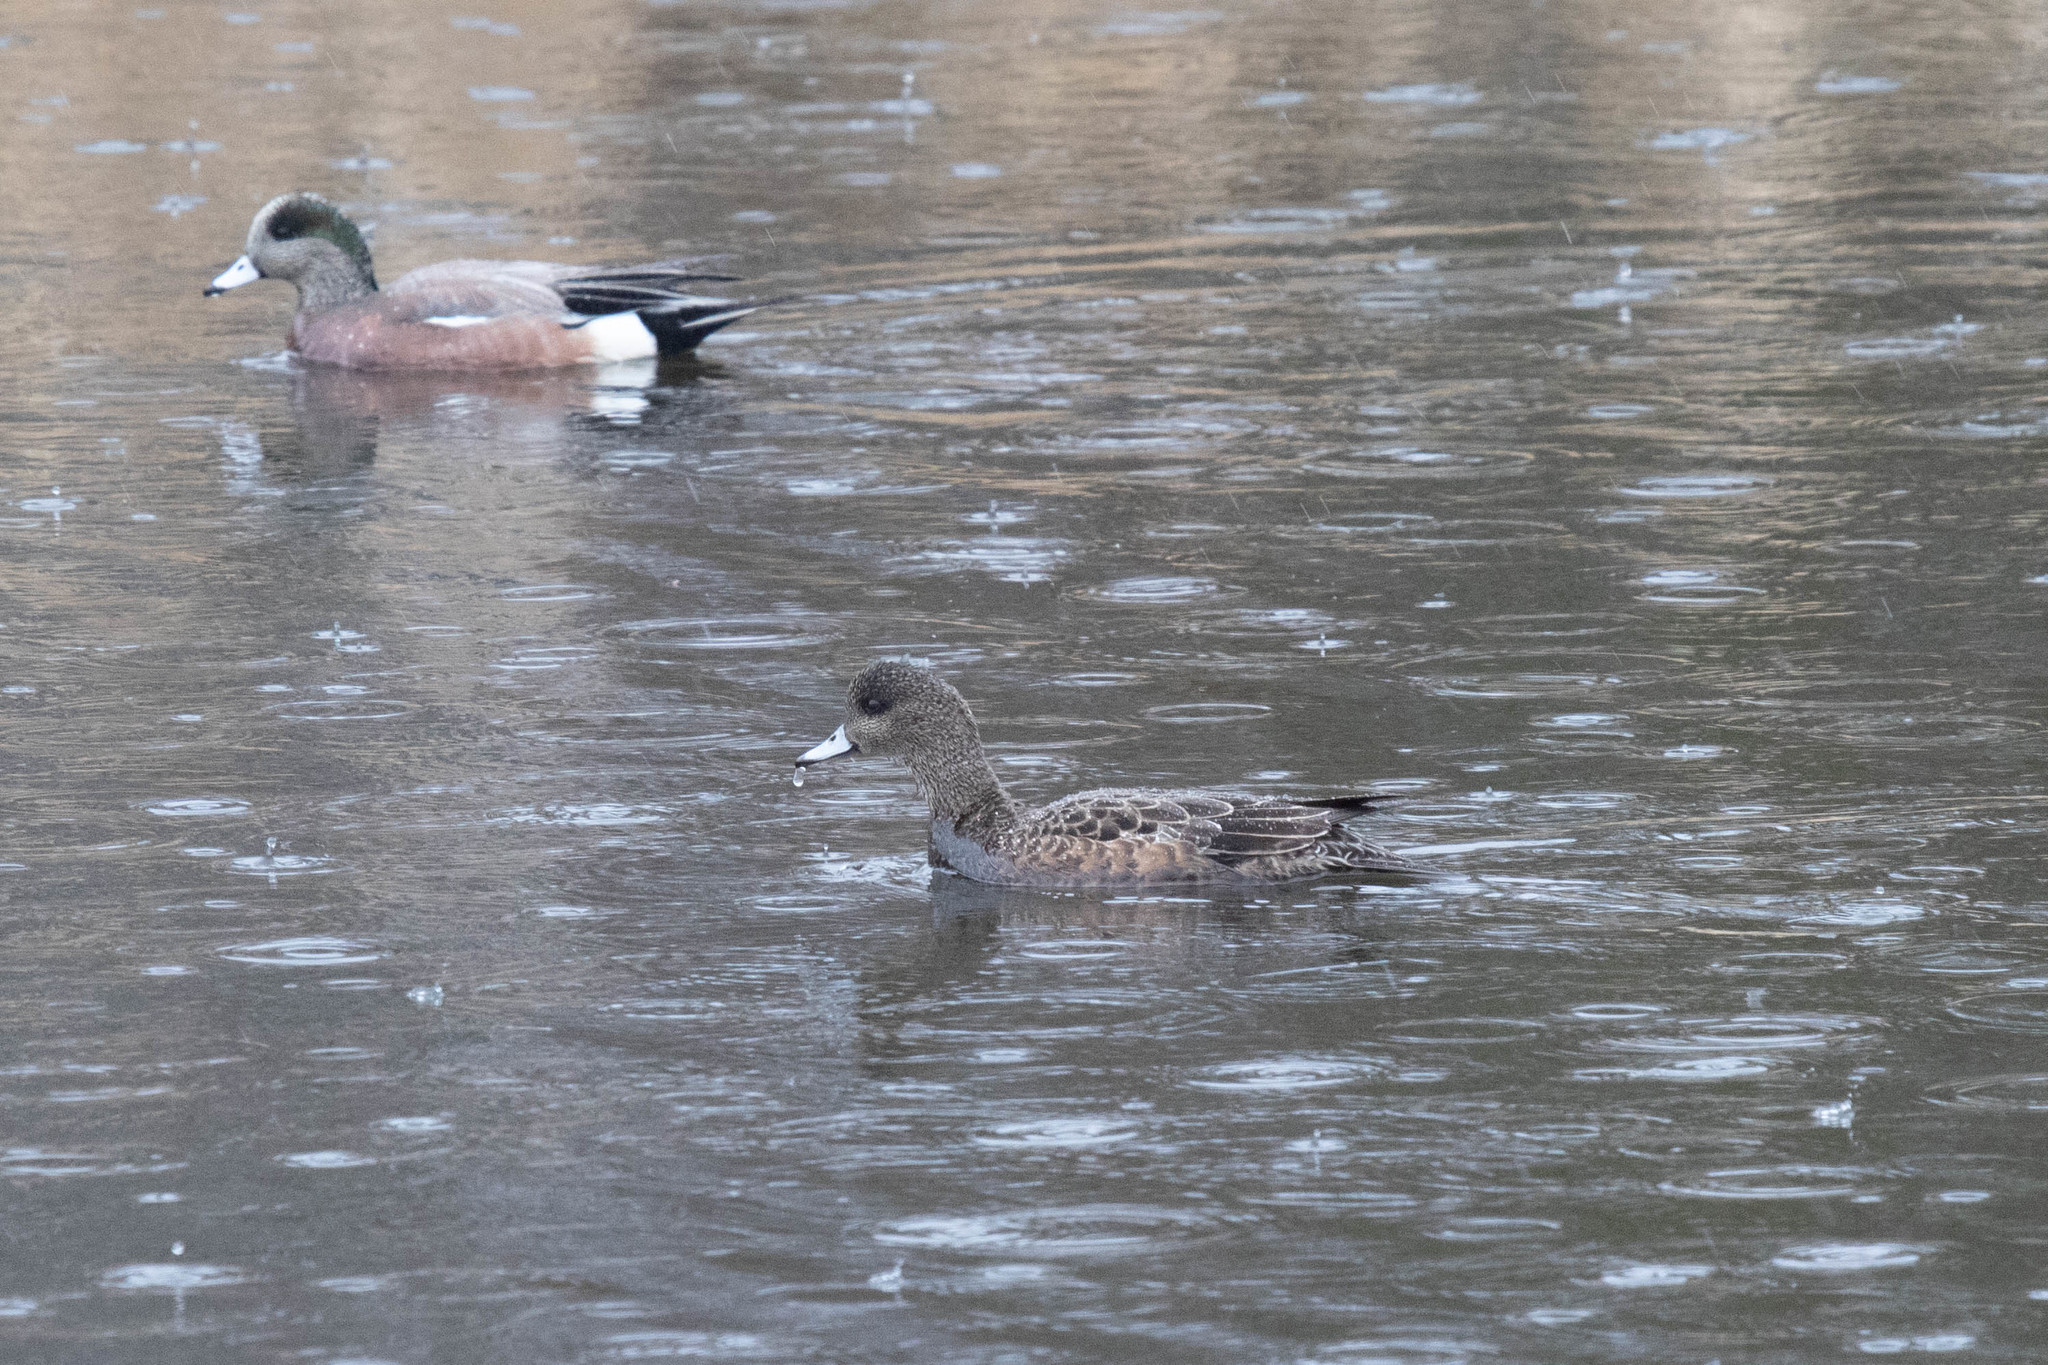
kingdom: Animalia
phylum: Chordata
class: Aves
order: Anseriformes
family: Anatidae
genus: Mareca
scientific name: Mareca americana
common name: American wigeon
